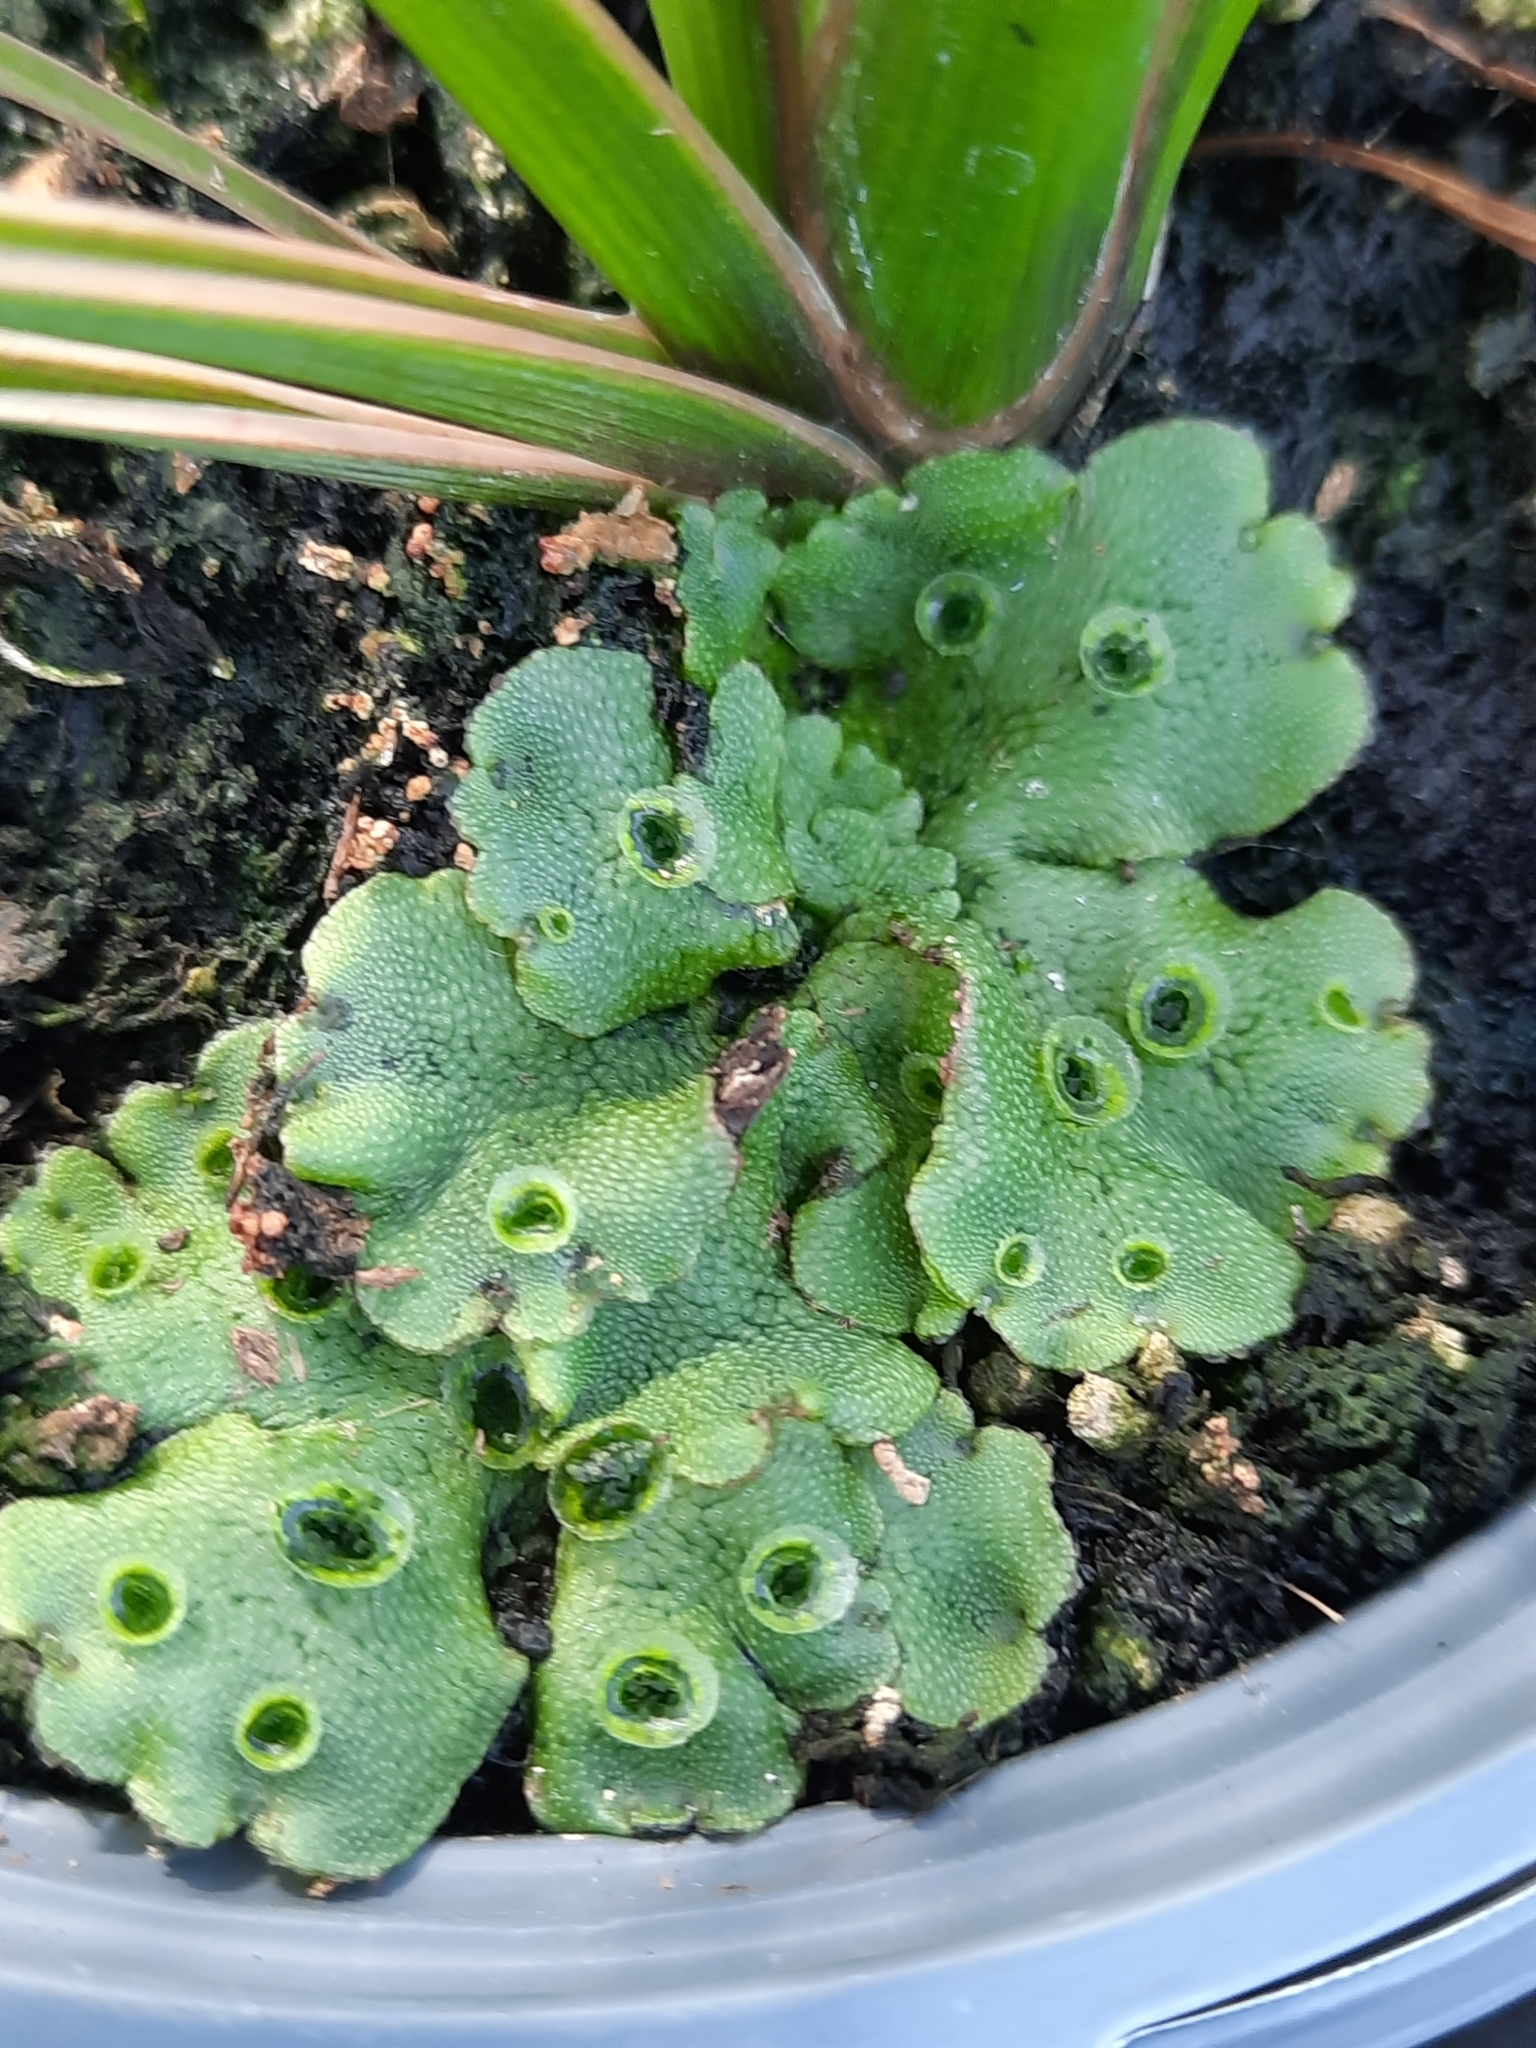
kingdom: Plantae
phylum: Marchantiophyta
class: Marchantiopsida
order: Marchantiales
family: Marchantiaceae
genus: Marchantia
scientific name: Marchantia polymorpha
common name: Common liverwort
